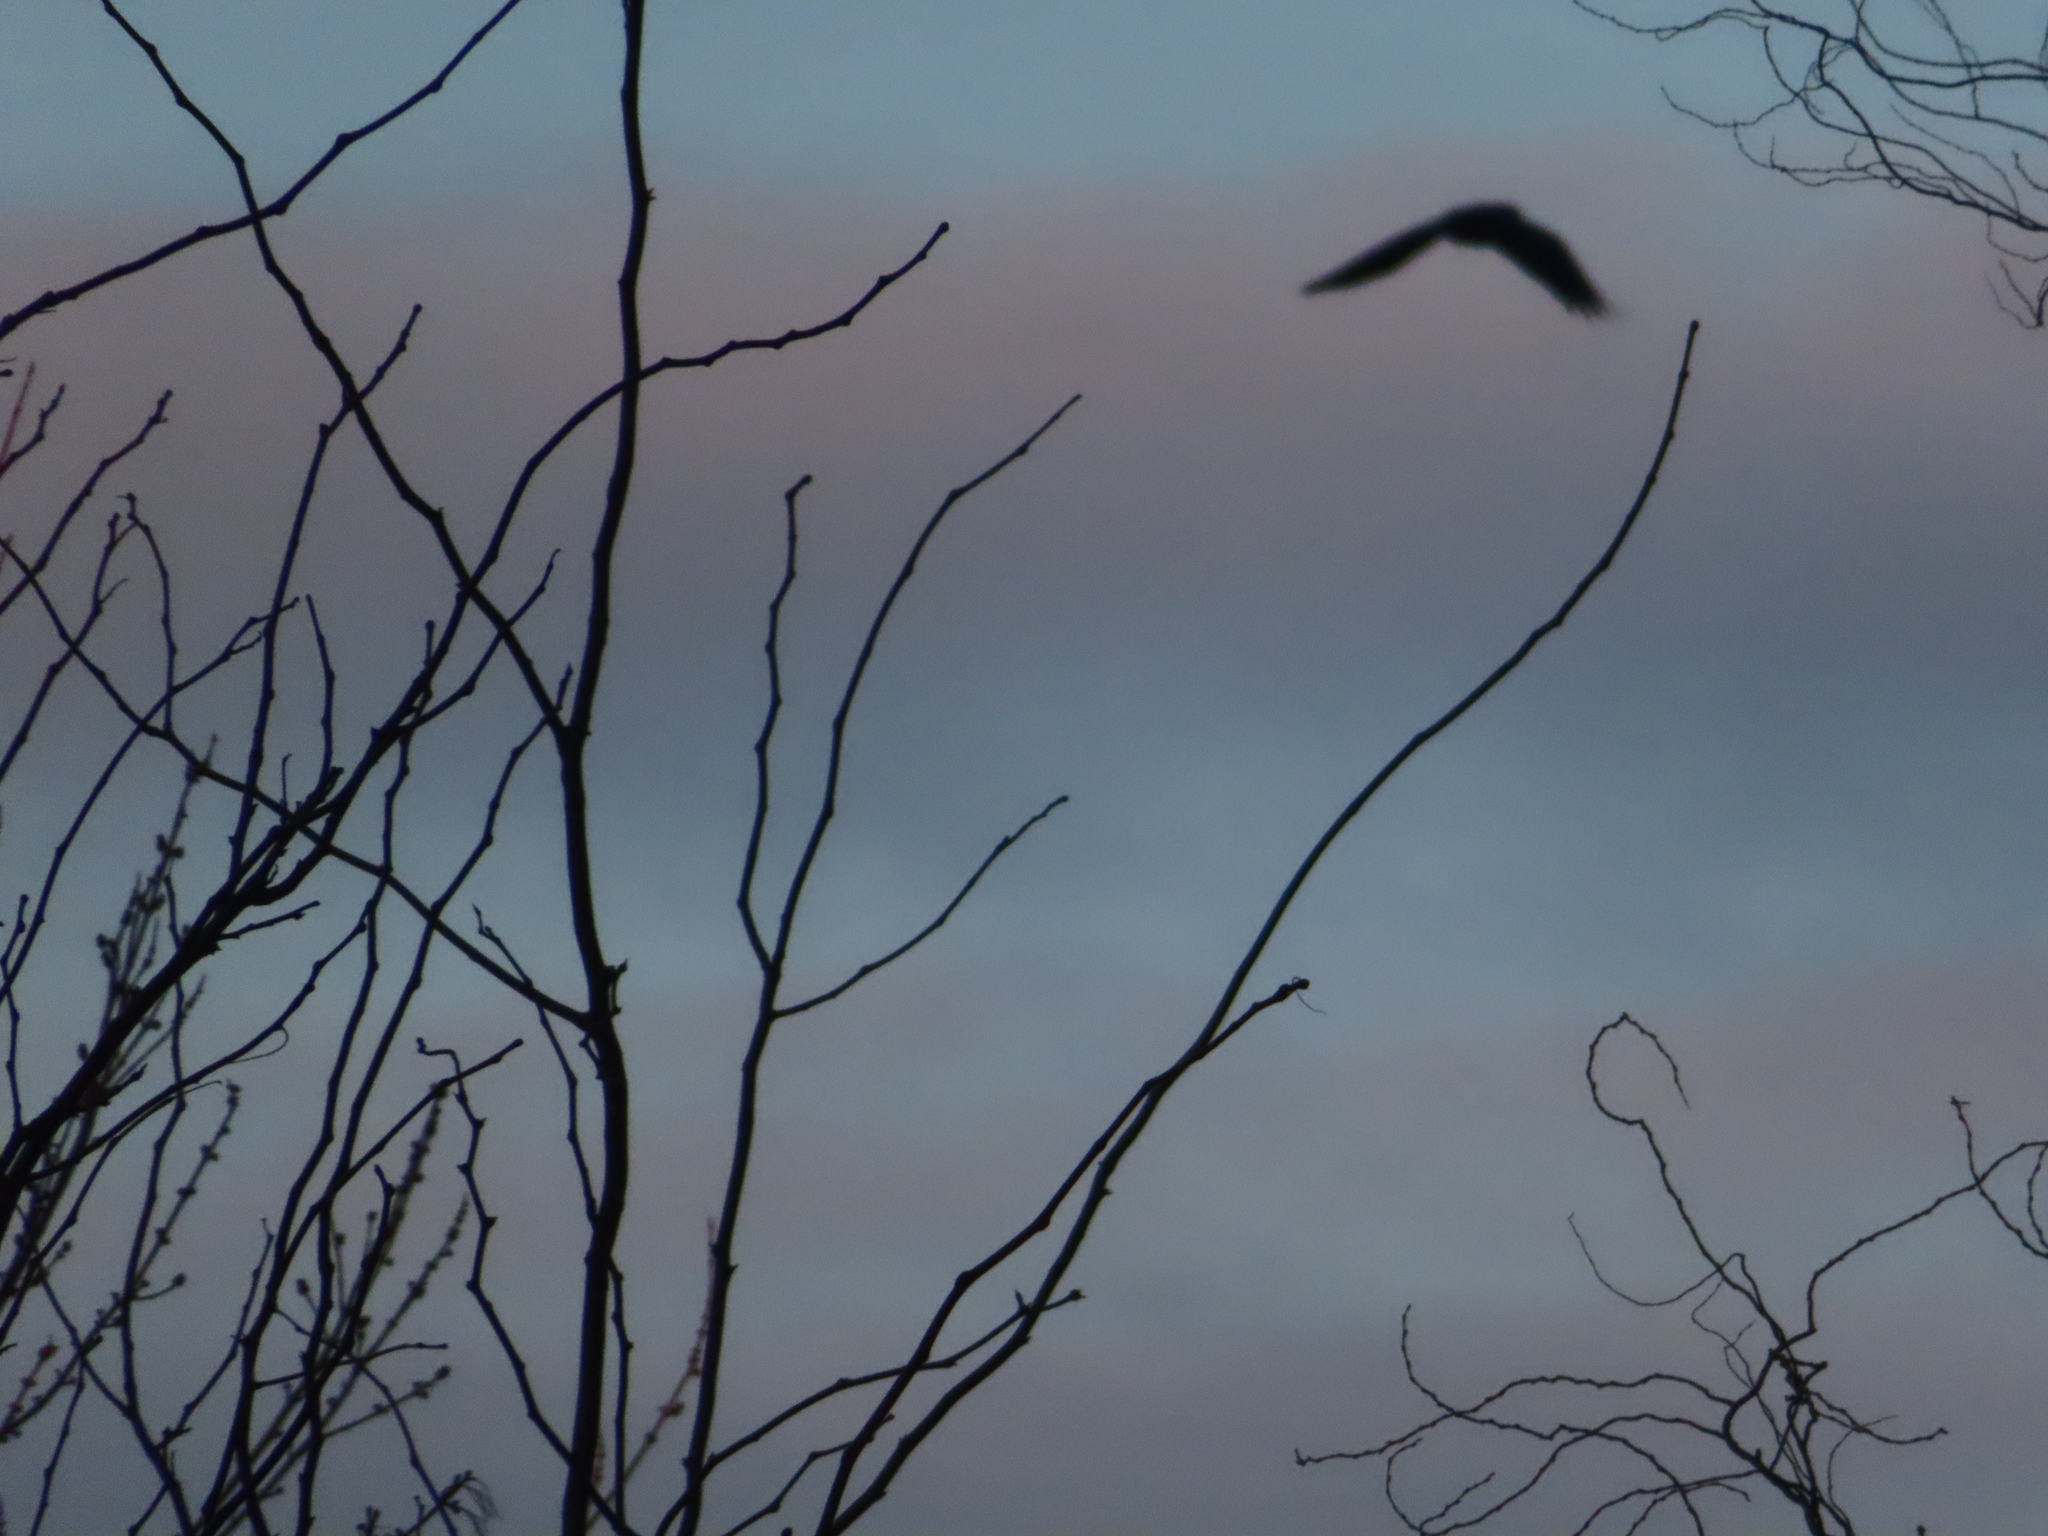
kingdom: Animalia
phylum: Chordata
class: Aves
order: Passeriformes
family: Corvidae
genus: Corvus
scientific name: Corvus
